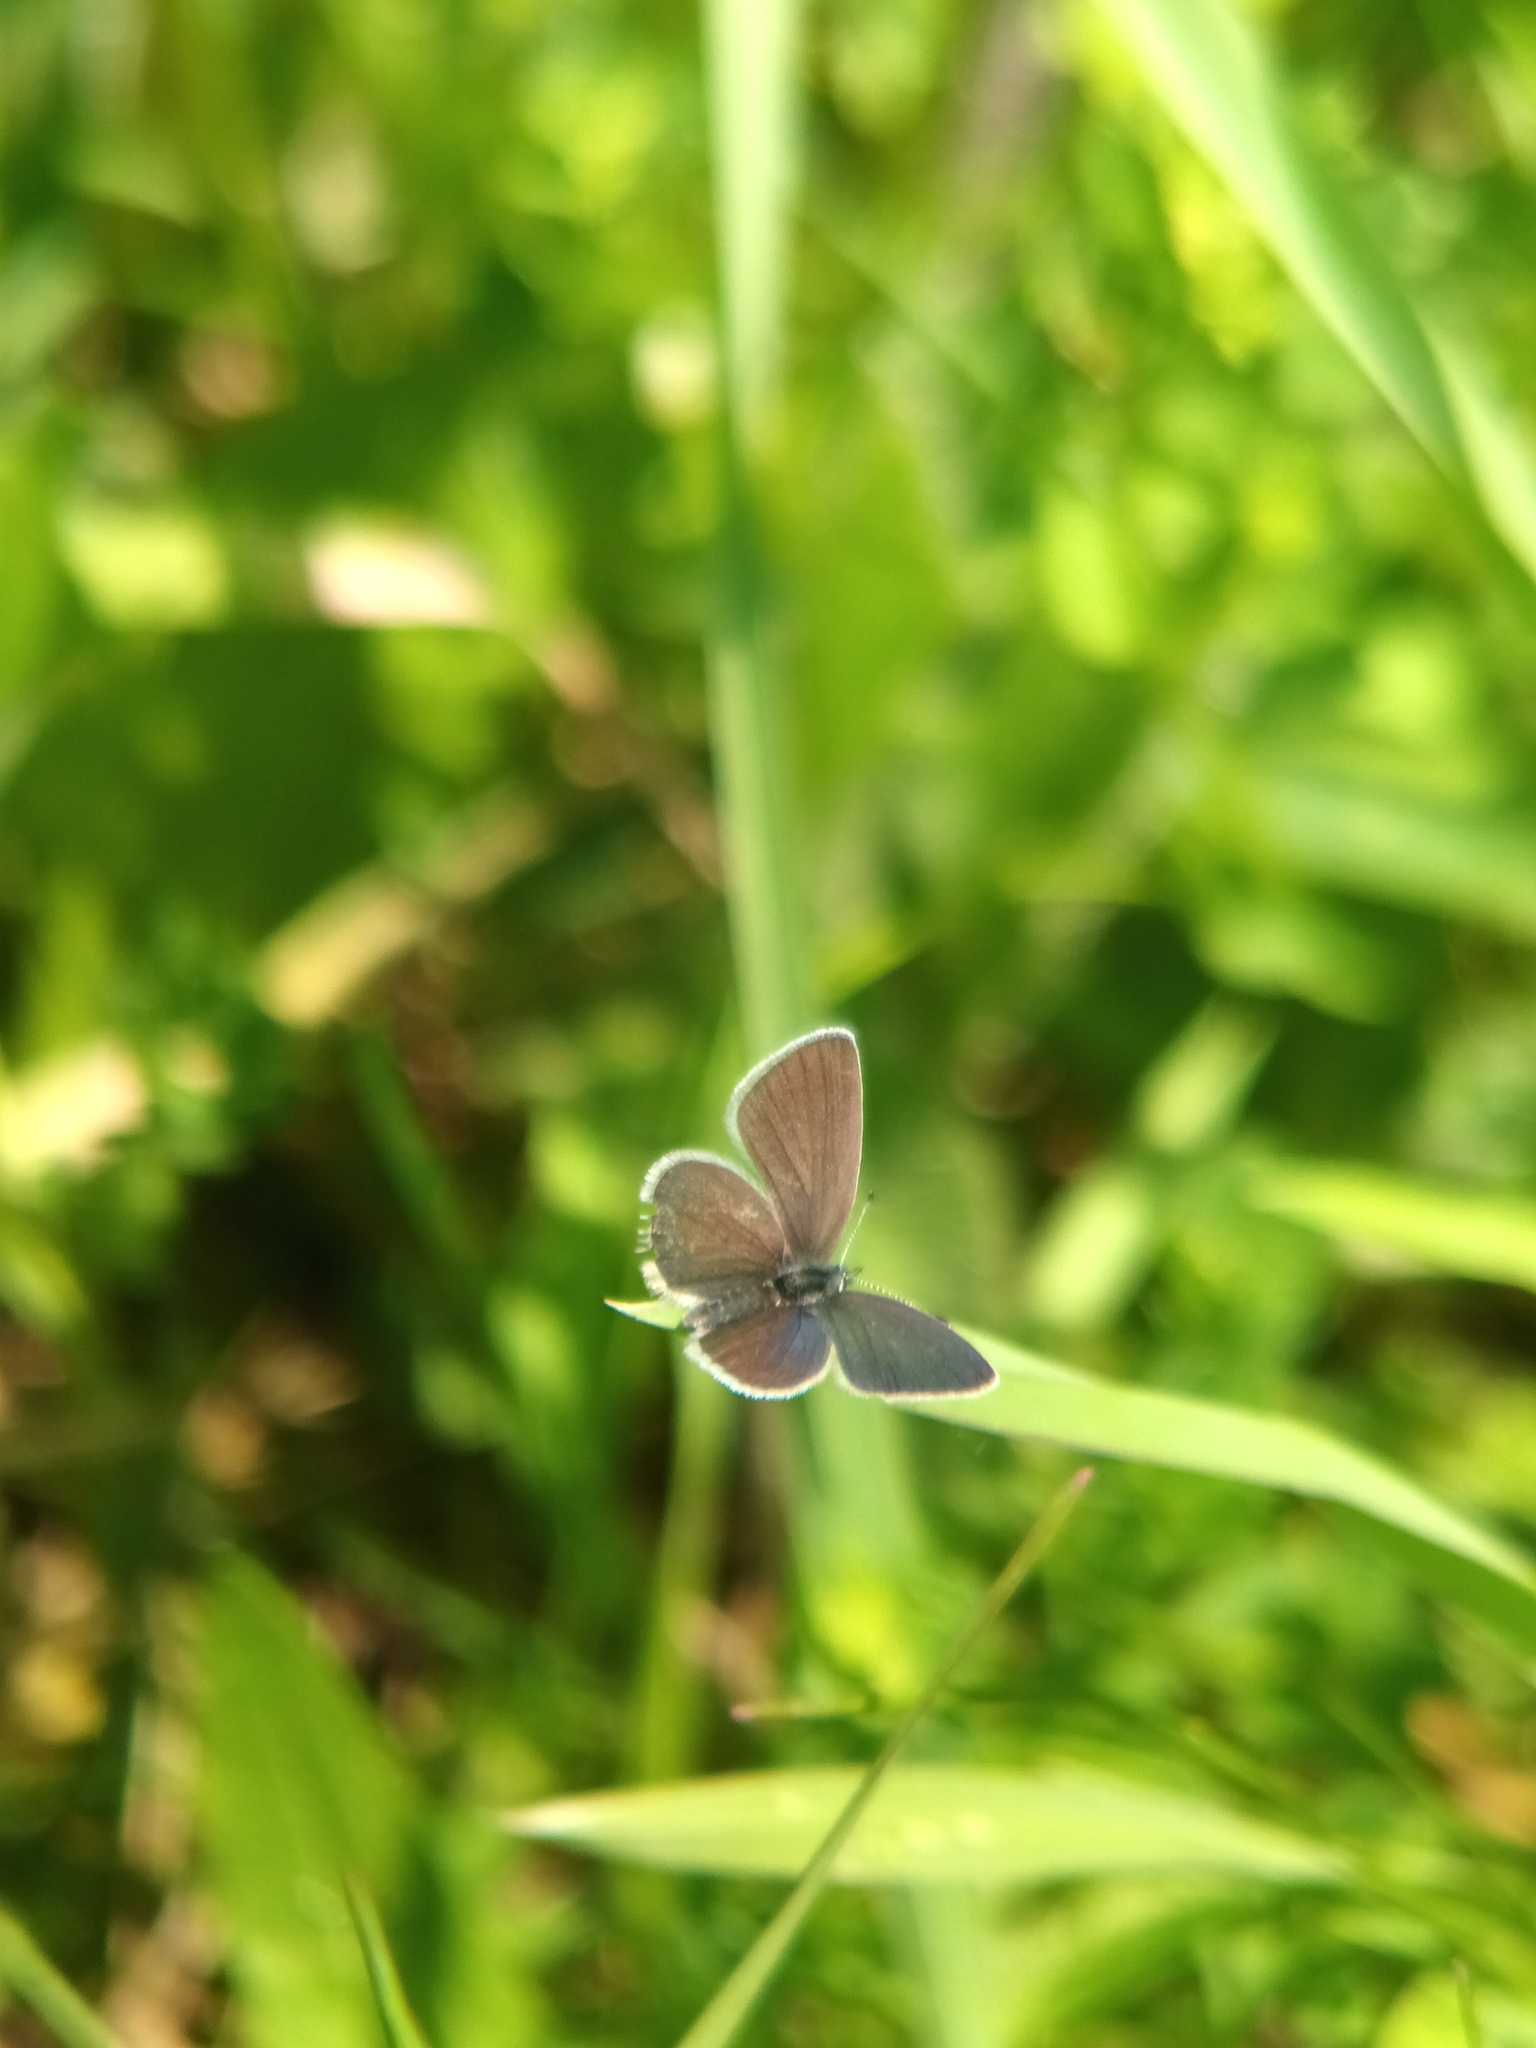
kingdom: Animalia
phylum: Arthropoda
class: Insecta
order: Lepidoptera
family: Lycaenidae
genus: Cupido
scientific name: Cupido minimus
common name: Small blue
